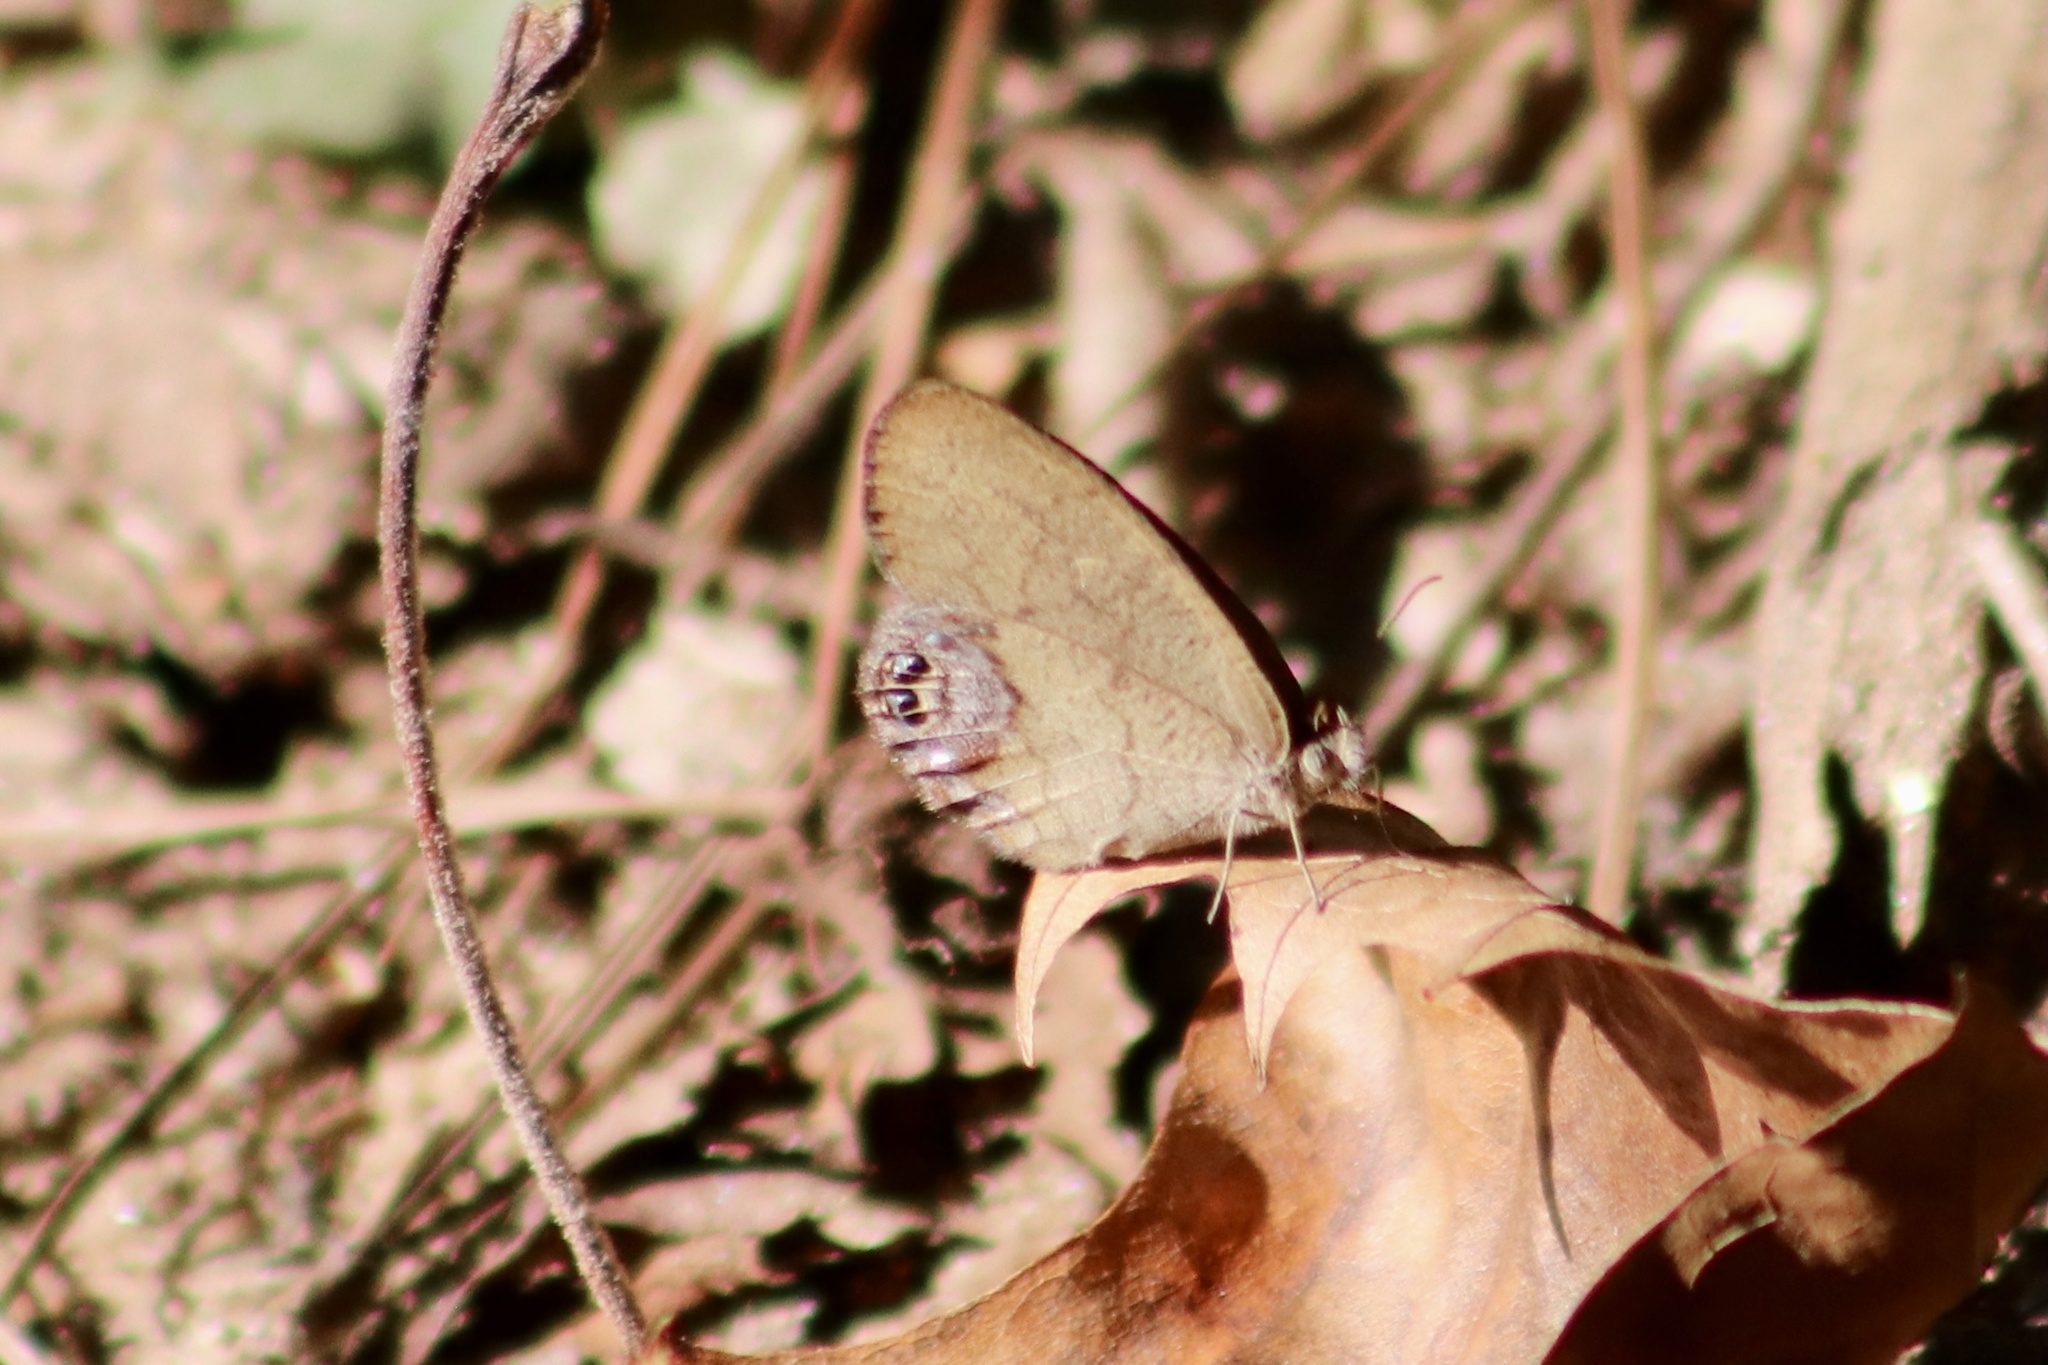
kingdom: Animalia
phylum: Arthropoda
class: Insecta
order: Lepidoptera
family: Nymphalidae
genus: Euptychia
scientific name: Euptychia cornelius
